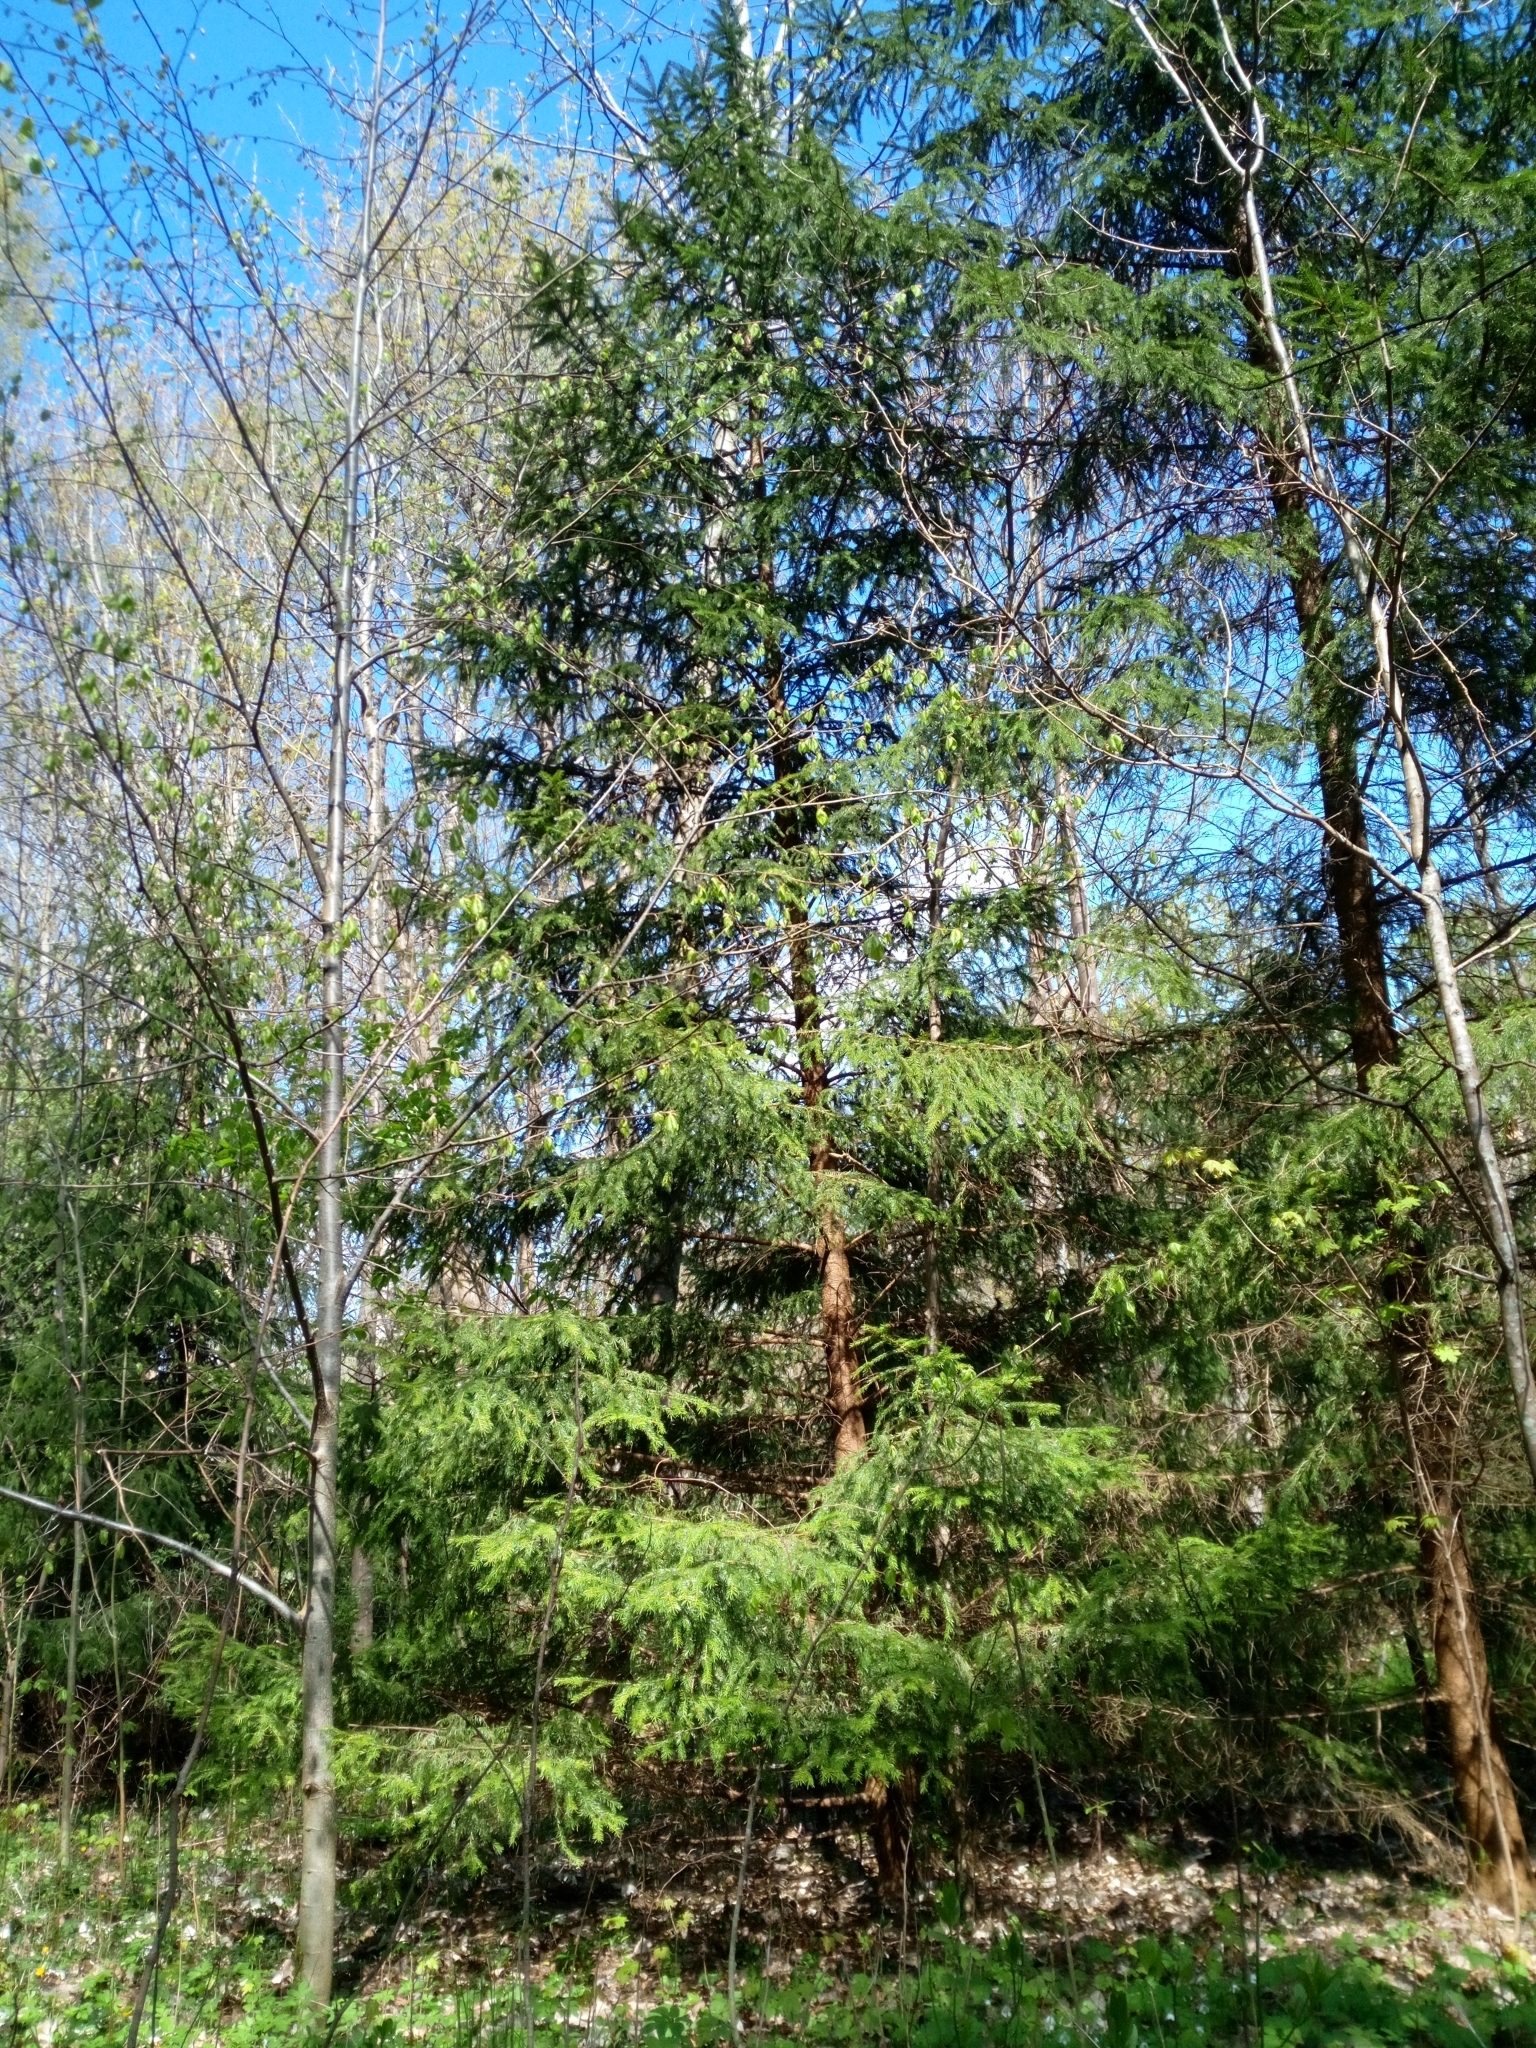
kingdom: Plantae
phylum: Tracheophyta
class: Pinopsida
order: Pinales
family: Pinaceae
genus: Picea
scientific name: Picea abies
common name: Norway spruce
